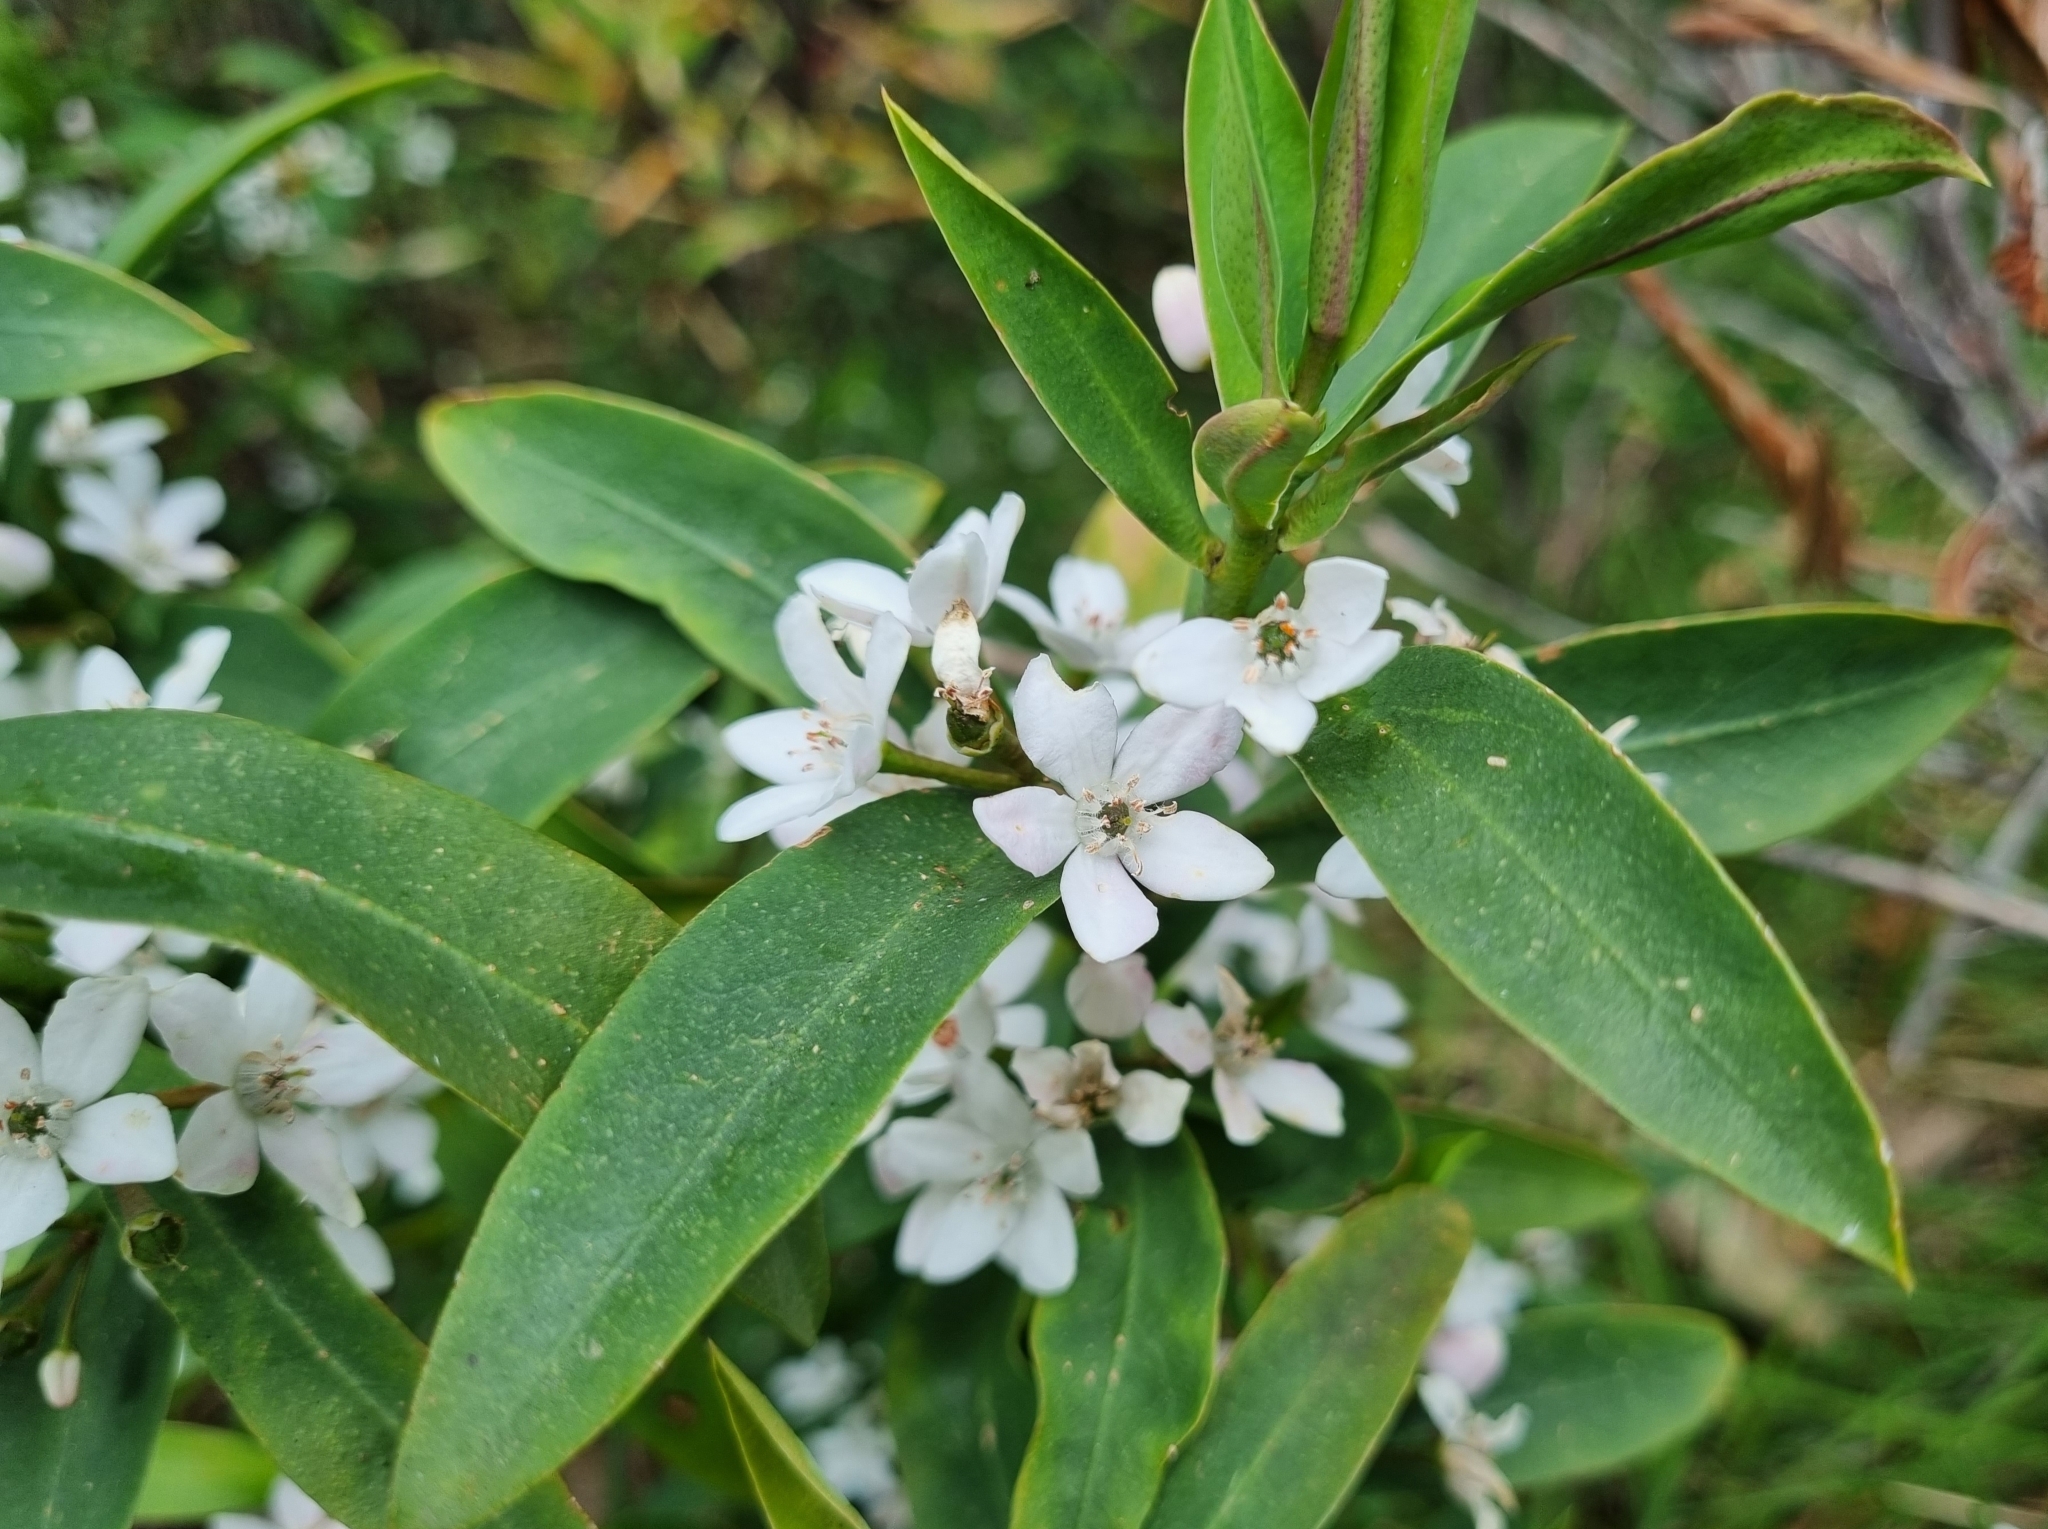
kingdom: Plantae
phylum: Tracheophyta
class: Magnoliopsida
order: Sapindales
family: Rutaceae
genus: Philotheca
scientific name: Philotheca myoporoides
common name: Longleaf waxflower
